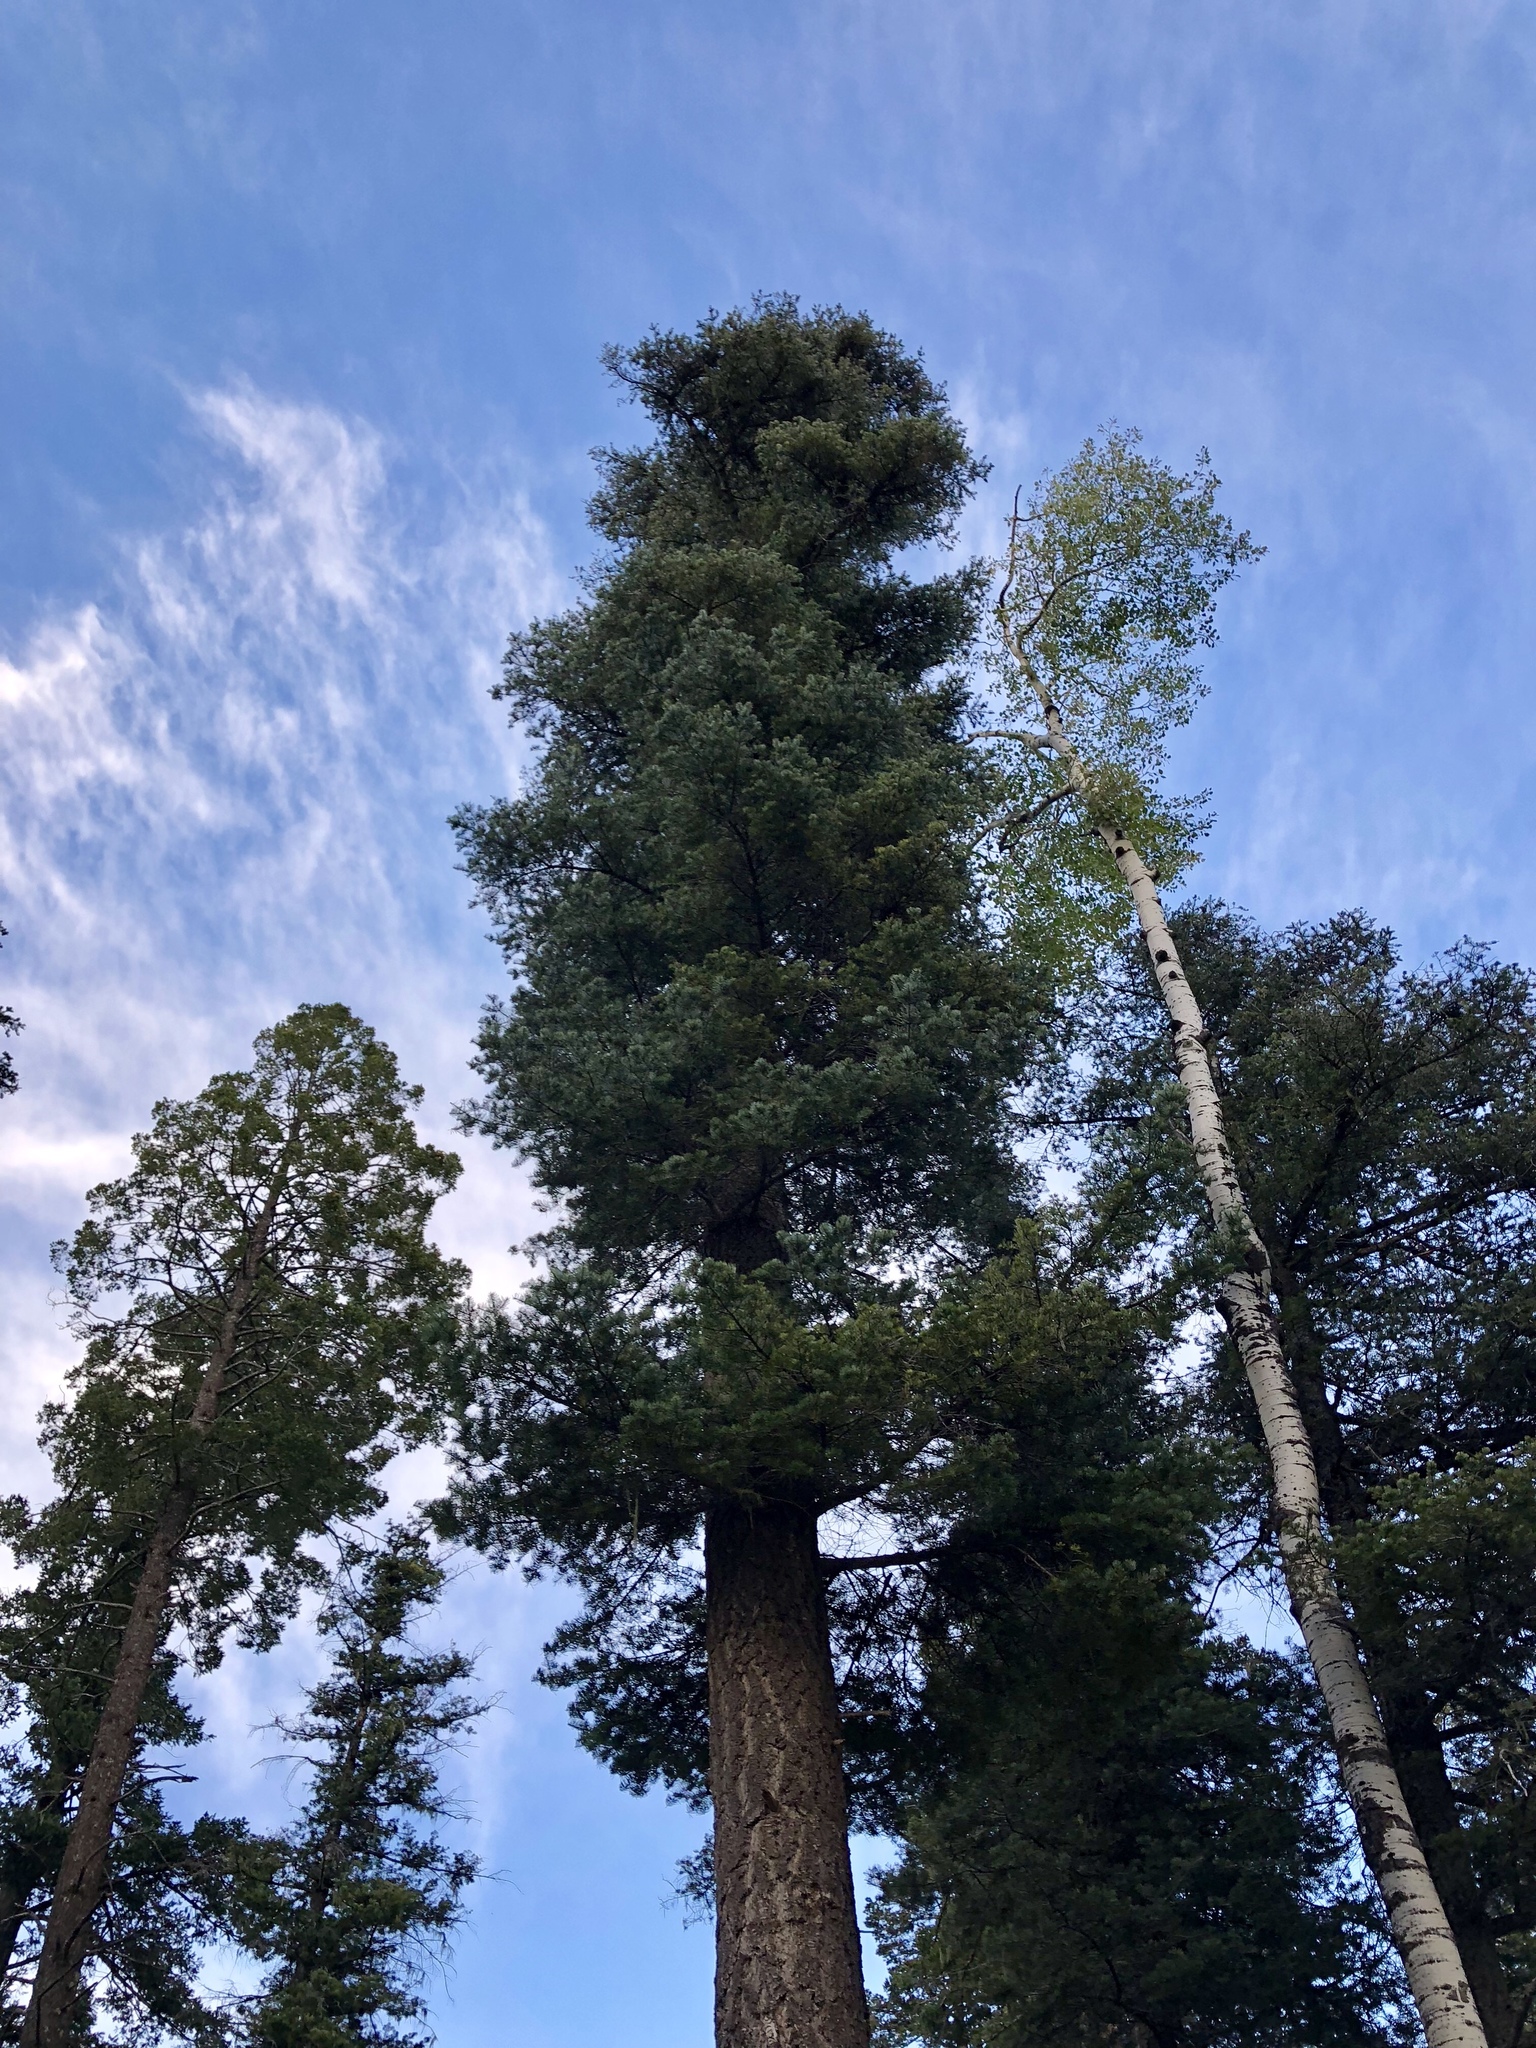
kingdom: Plantae
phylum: Tracheophyta
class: Pinopsida
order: Pinales
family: Pinaceae
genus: Pseudotsuga
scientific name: Pseudotsuga menziesii
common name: Douglas fir
